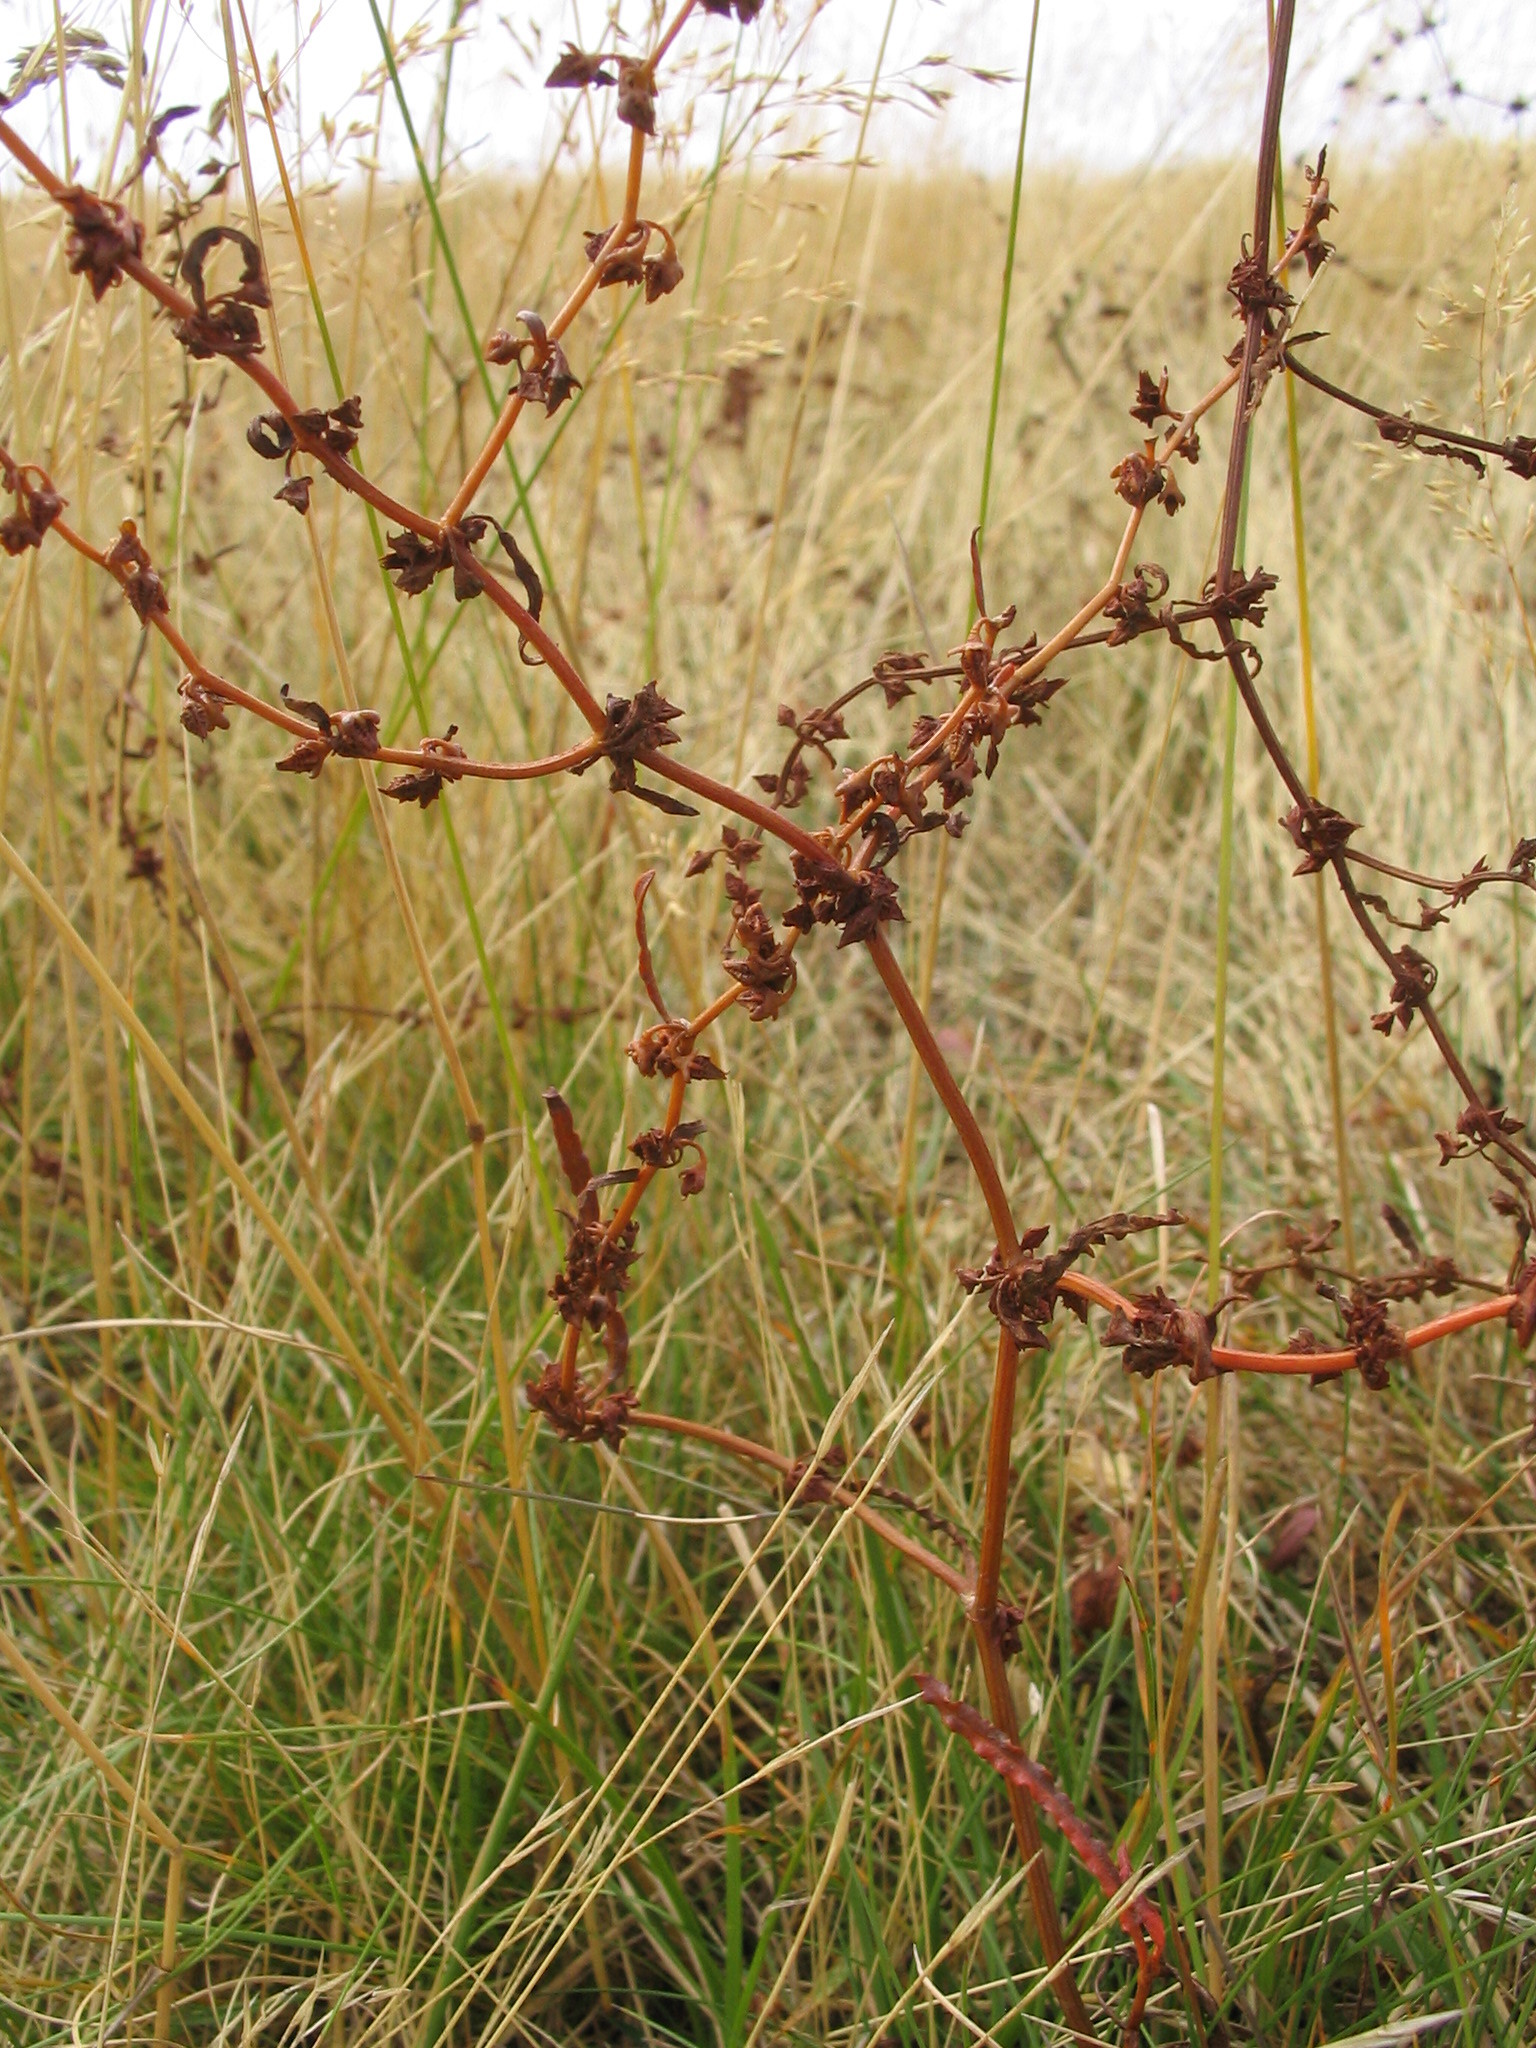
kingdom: Plantae
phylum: Tracheophyta
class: Magnoliopsida
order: Caryophyllales
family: Polygonaceae
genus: Rumex
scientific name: Rumex flexuosus
